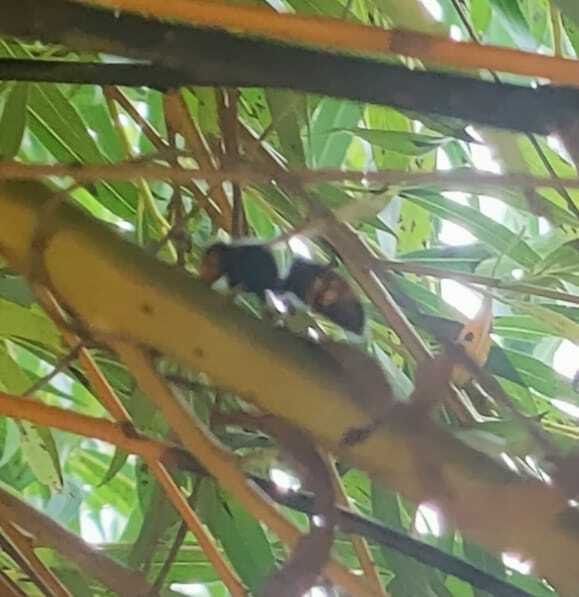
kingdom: Animalia
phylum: Arthropoda
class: Insecta
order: Hymenoptera
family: Vespidae
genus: Vespa
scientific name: Vespa velutina
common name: Asian hornet
